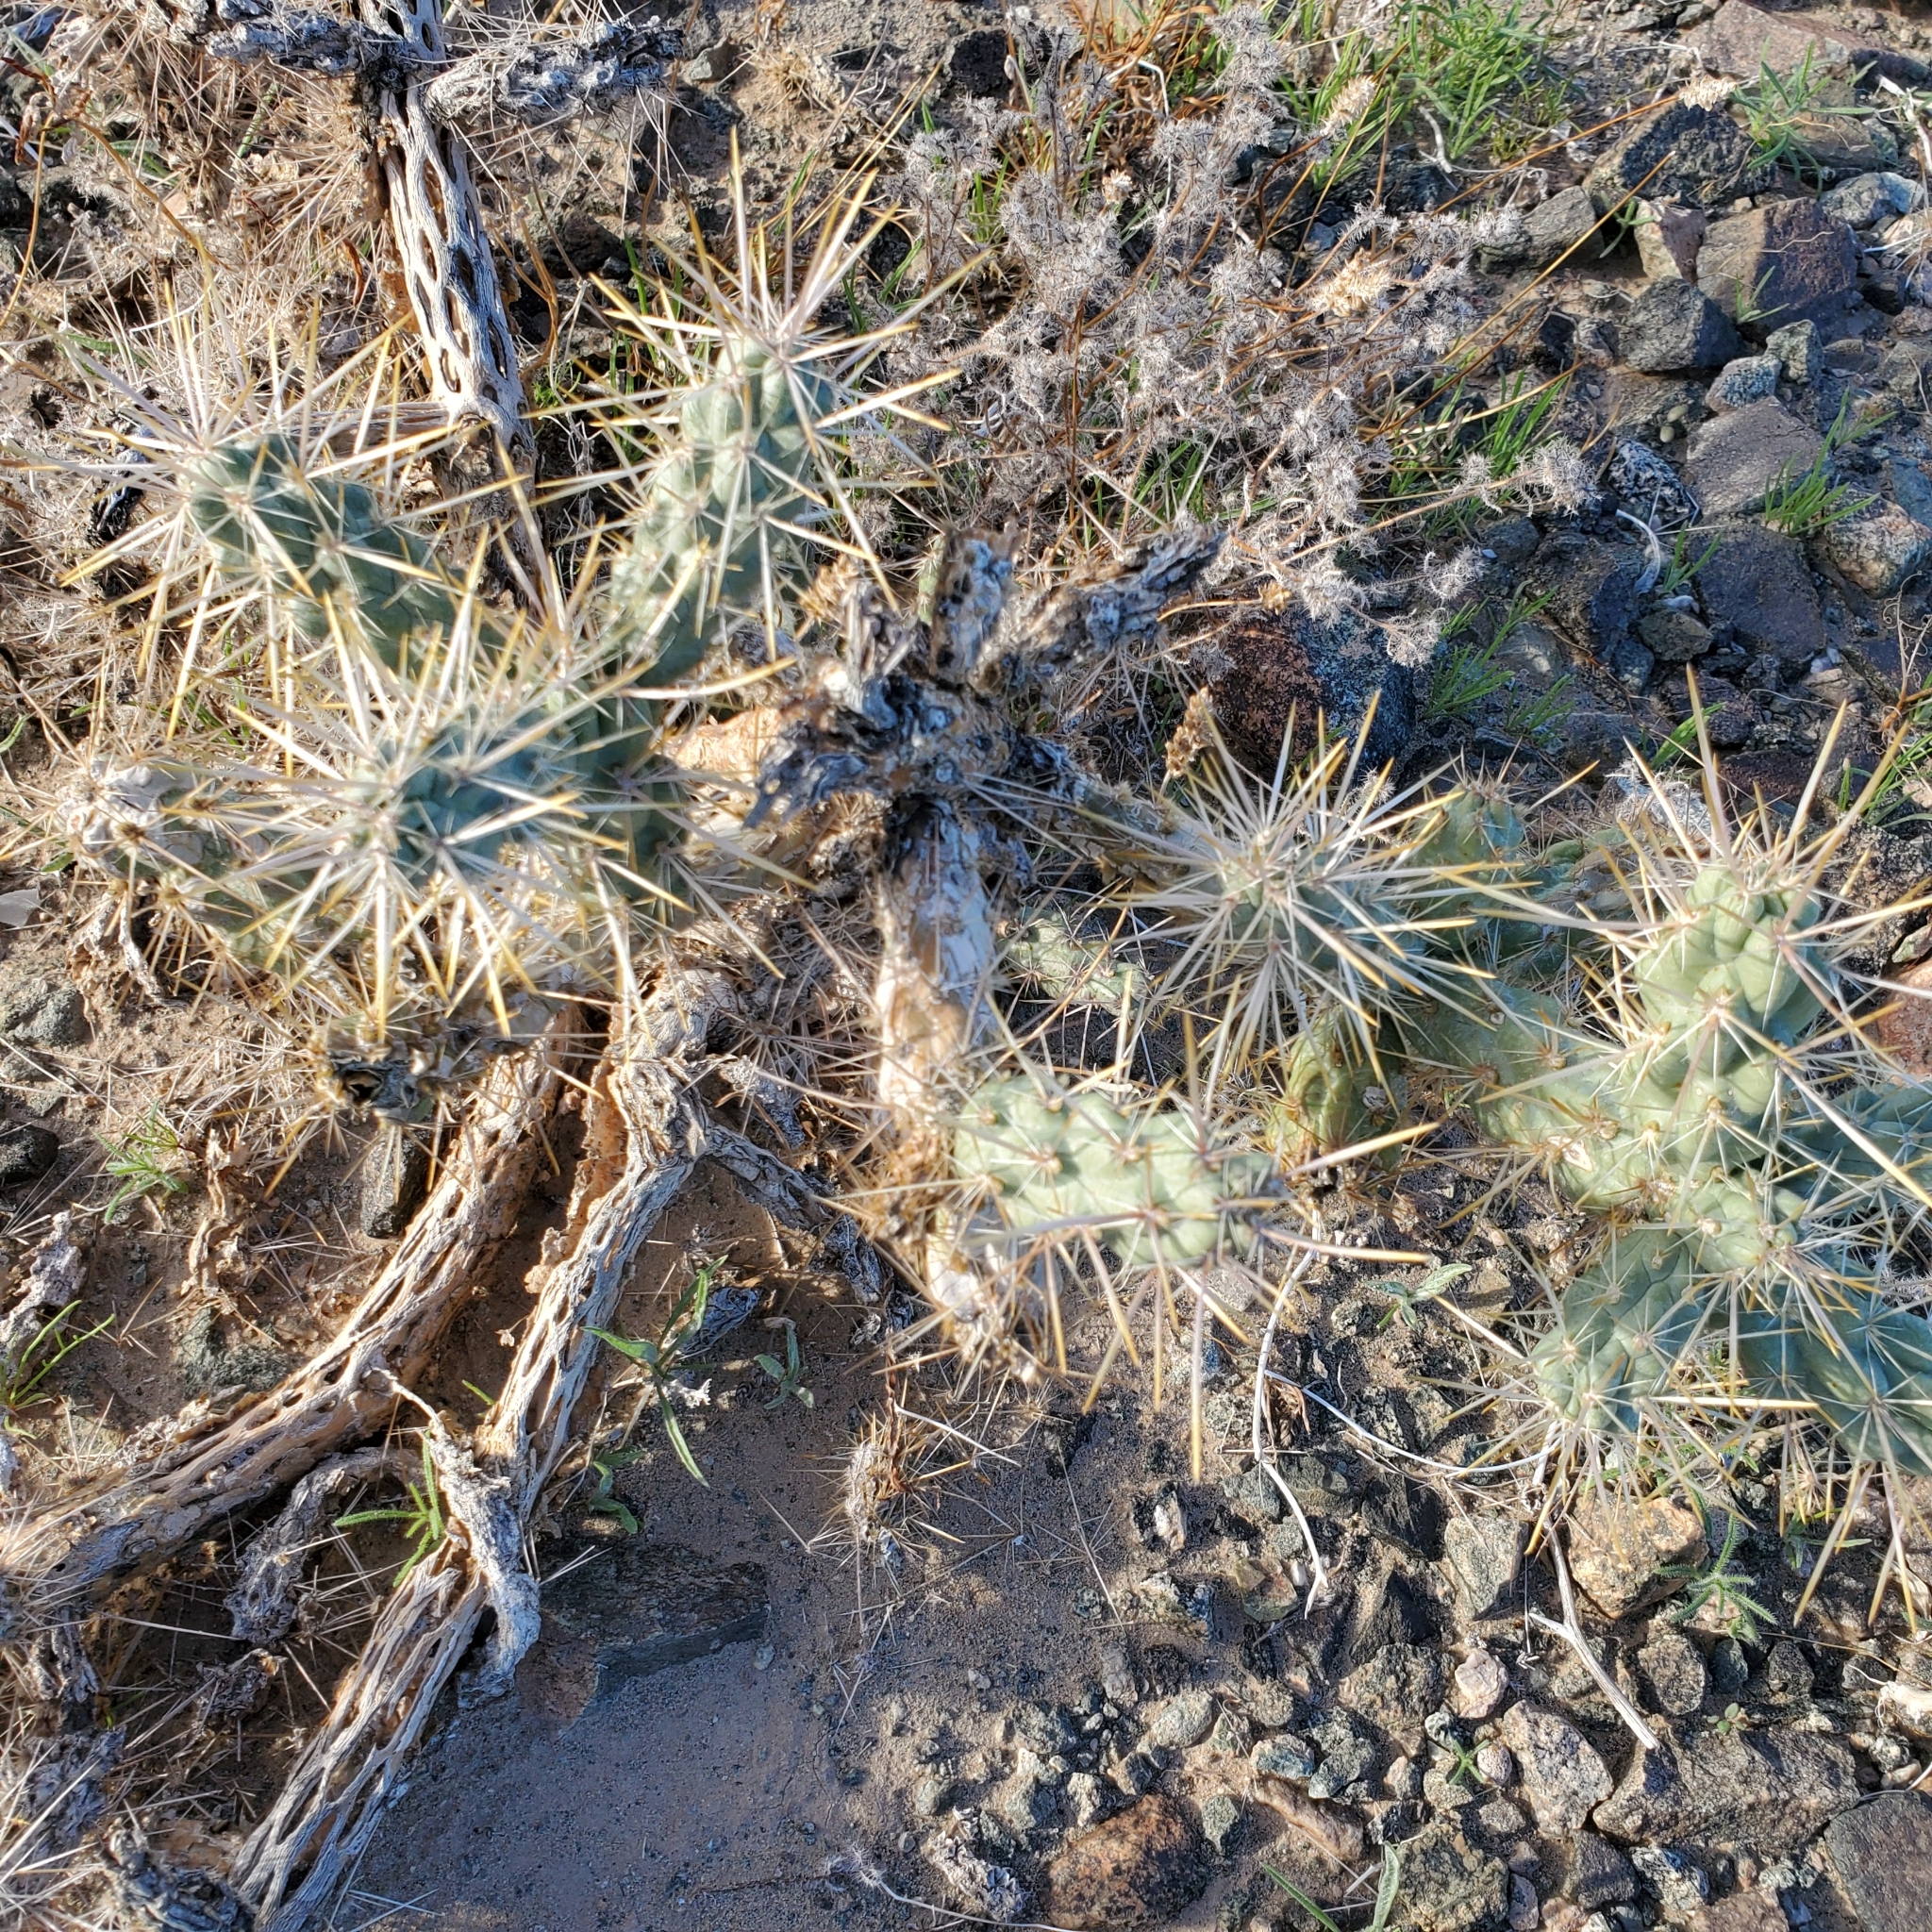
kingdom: Plantae
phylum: Tracheophyta
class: Magnoliopsida
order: Caryophyllales
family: Cactaceae
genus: Cylindropuntia
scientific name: Cylindropuntia echinocarpa
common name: Ground cholla
